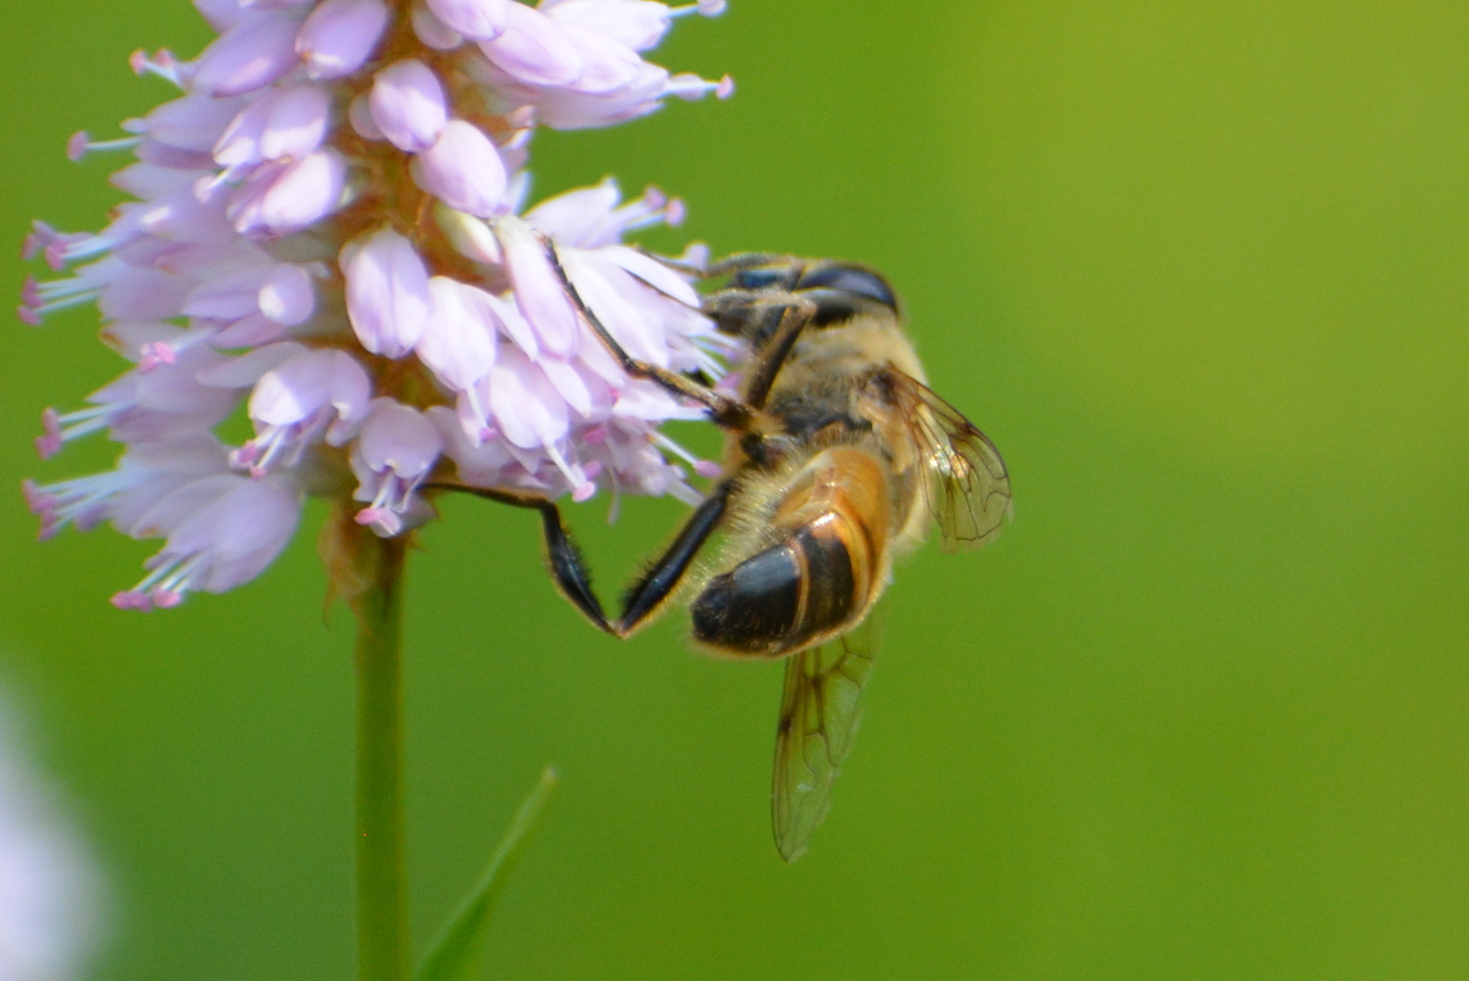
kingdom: Animalia
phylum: Arthropoda
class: Insecta
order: Diptera
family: Syrphidae
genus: Eristalis
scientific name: Eristalis tenax
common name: Drone fly
